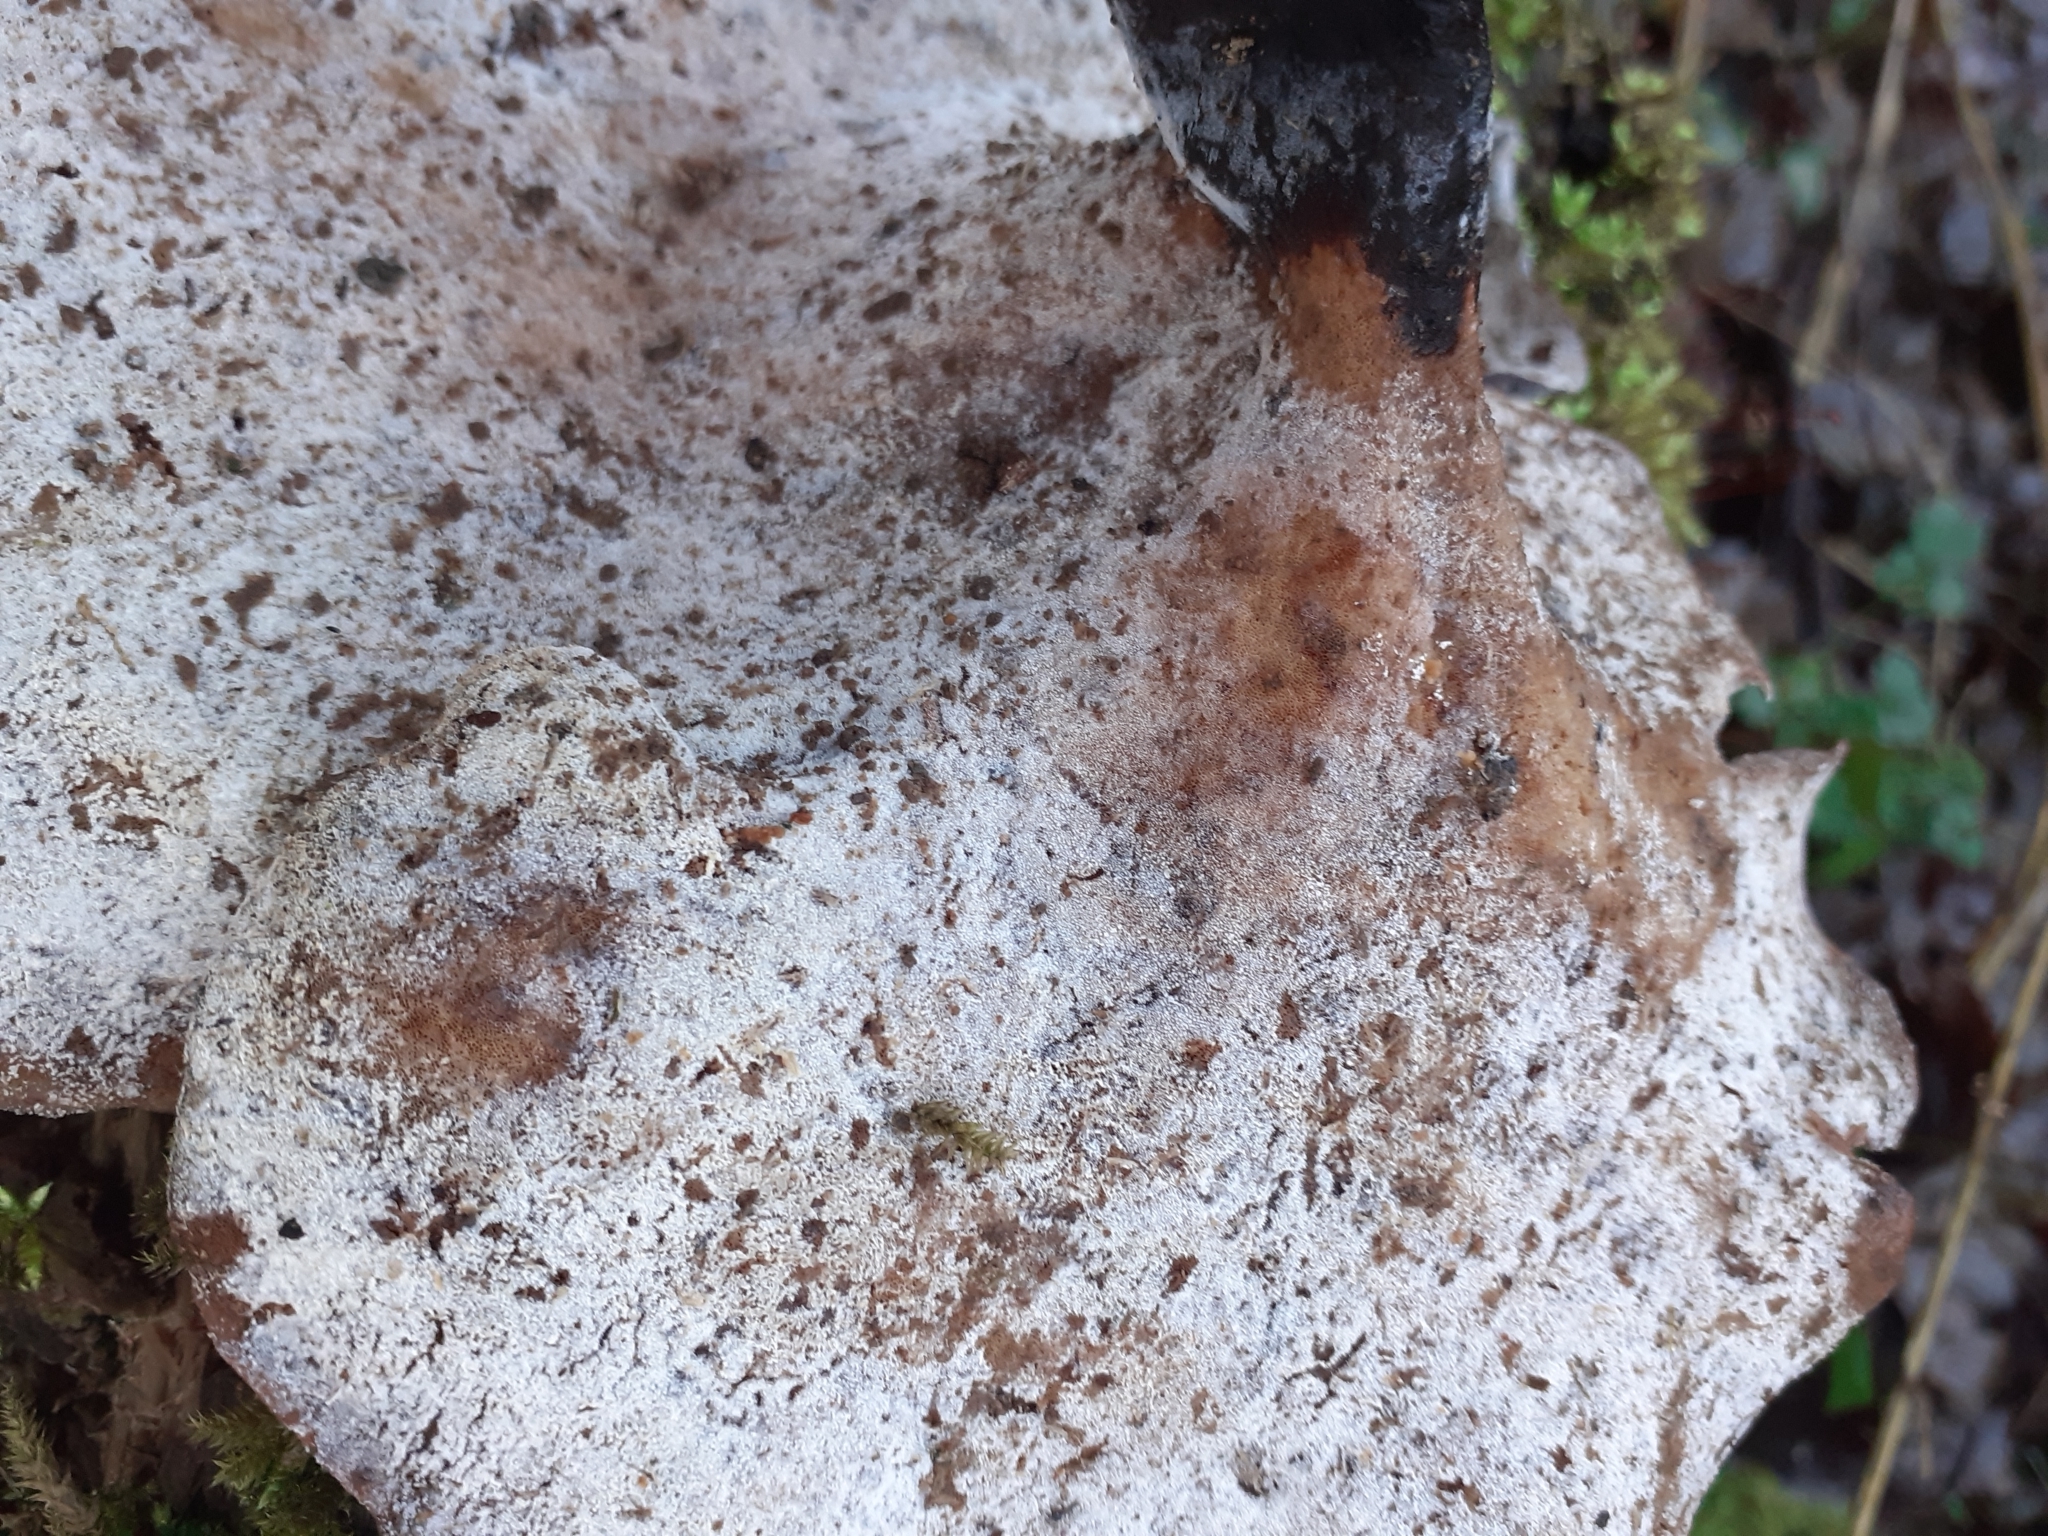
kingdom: Fungi
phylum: Basidiomycota
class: Agaricomycetes
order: Polyporales
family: Polyporaceae
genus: Picipes
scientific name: Picipes badius
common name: Bay polypore
